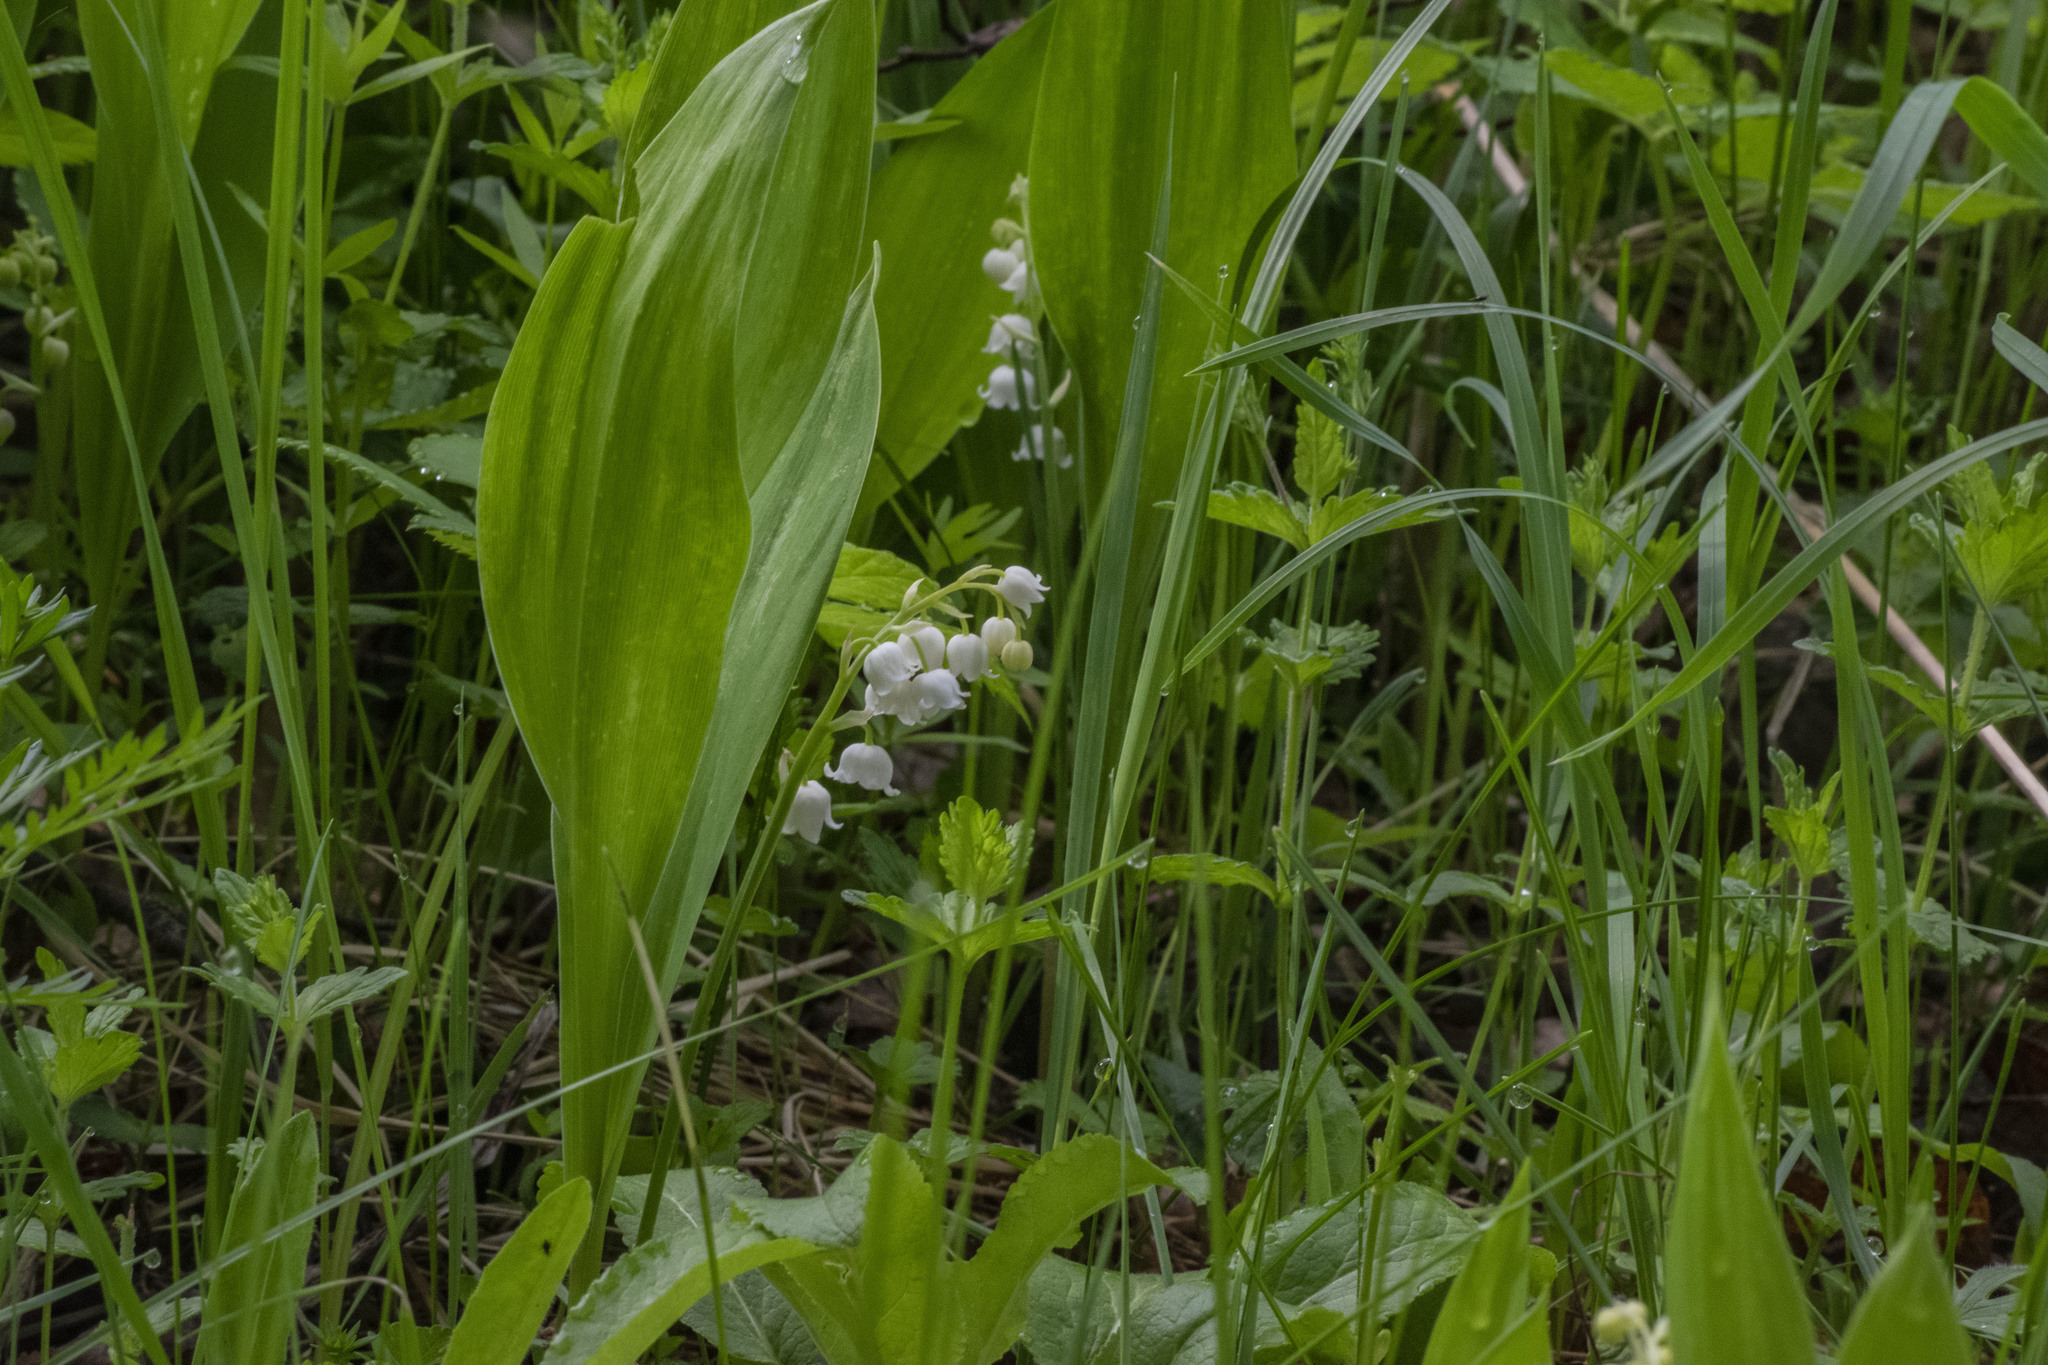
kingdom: Plantae
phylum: Tracheophyta
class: Liliopsida
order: Asparagales
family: Asparagaceae
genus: Convallaria
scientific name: Convallaria majalis
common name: Lily-of-the-valley
